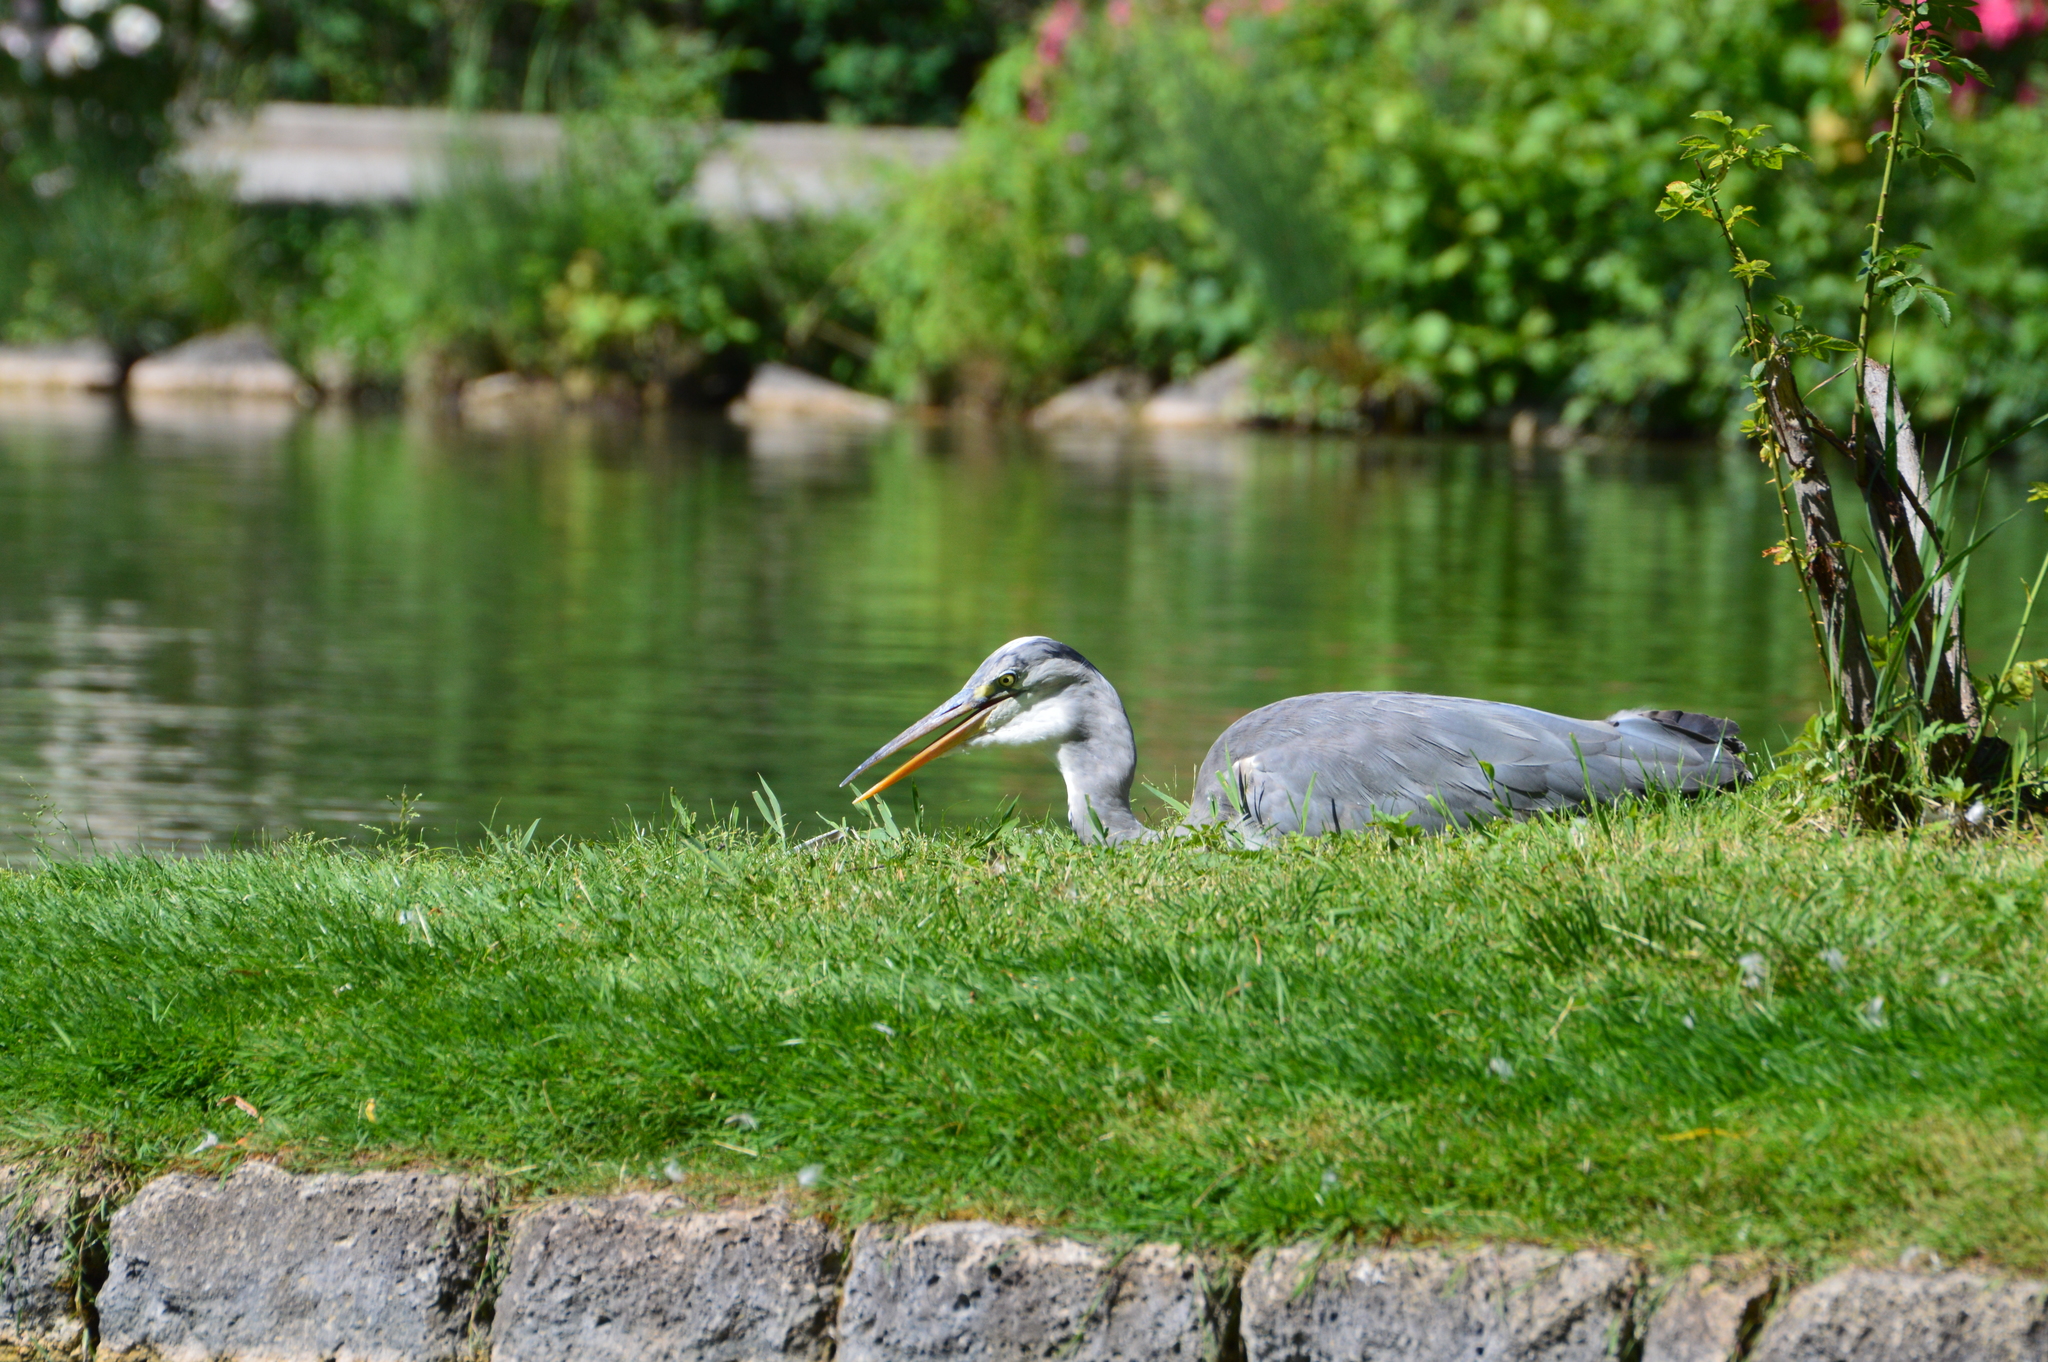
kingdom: Animalia
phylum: Chordata
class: Aves
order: Pelecaniformes
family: Ardeidae
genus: Ardea
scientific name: Ardea cinerea
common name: Grey heron
